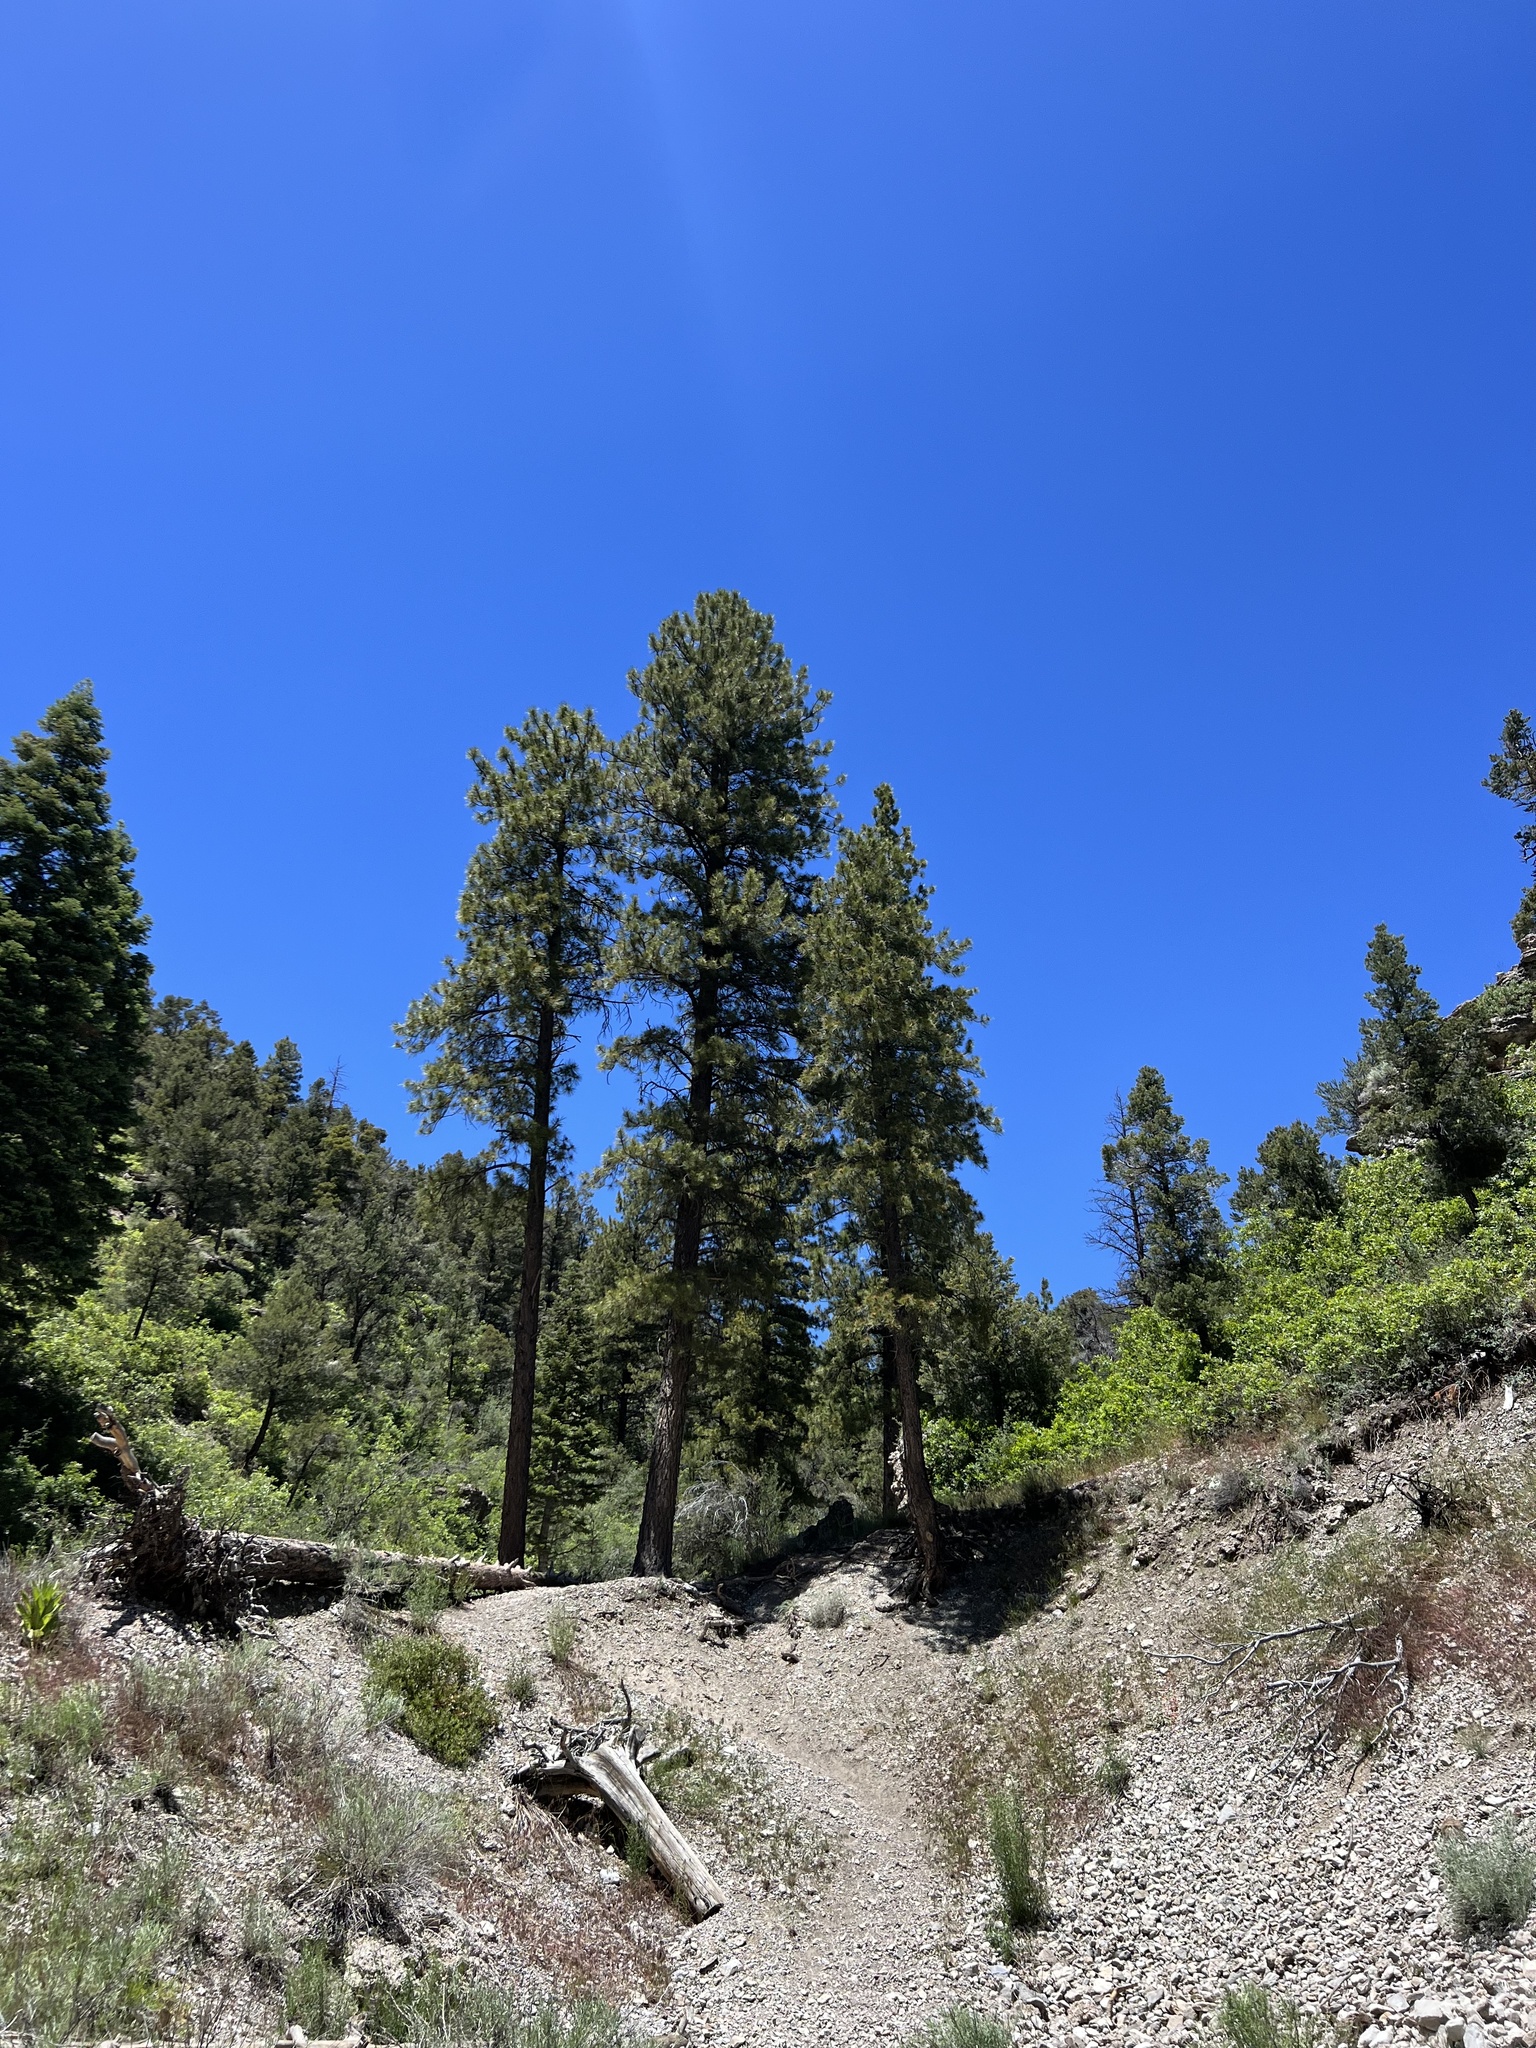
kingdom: Plantae
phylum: Tracheophyta
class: Pinopsida
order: Pinales
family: Pinaceae
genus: Pinus
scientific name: Pinus ponderosa
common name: Western yellow-pine
